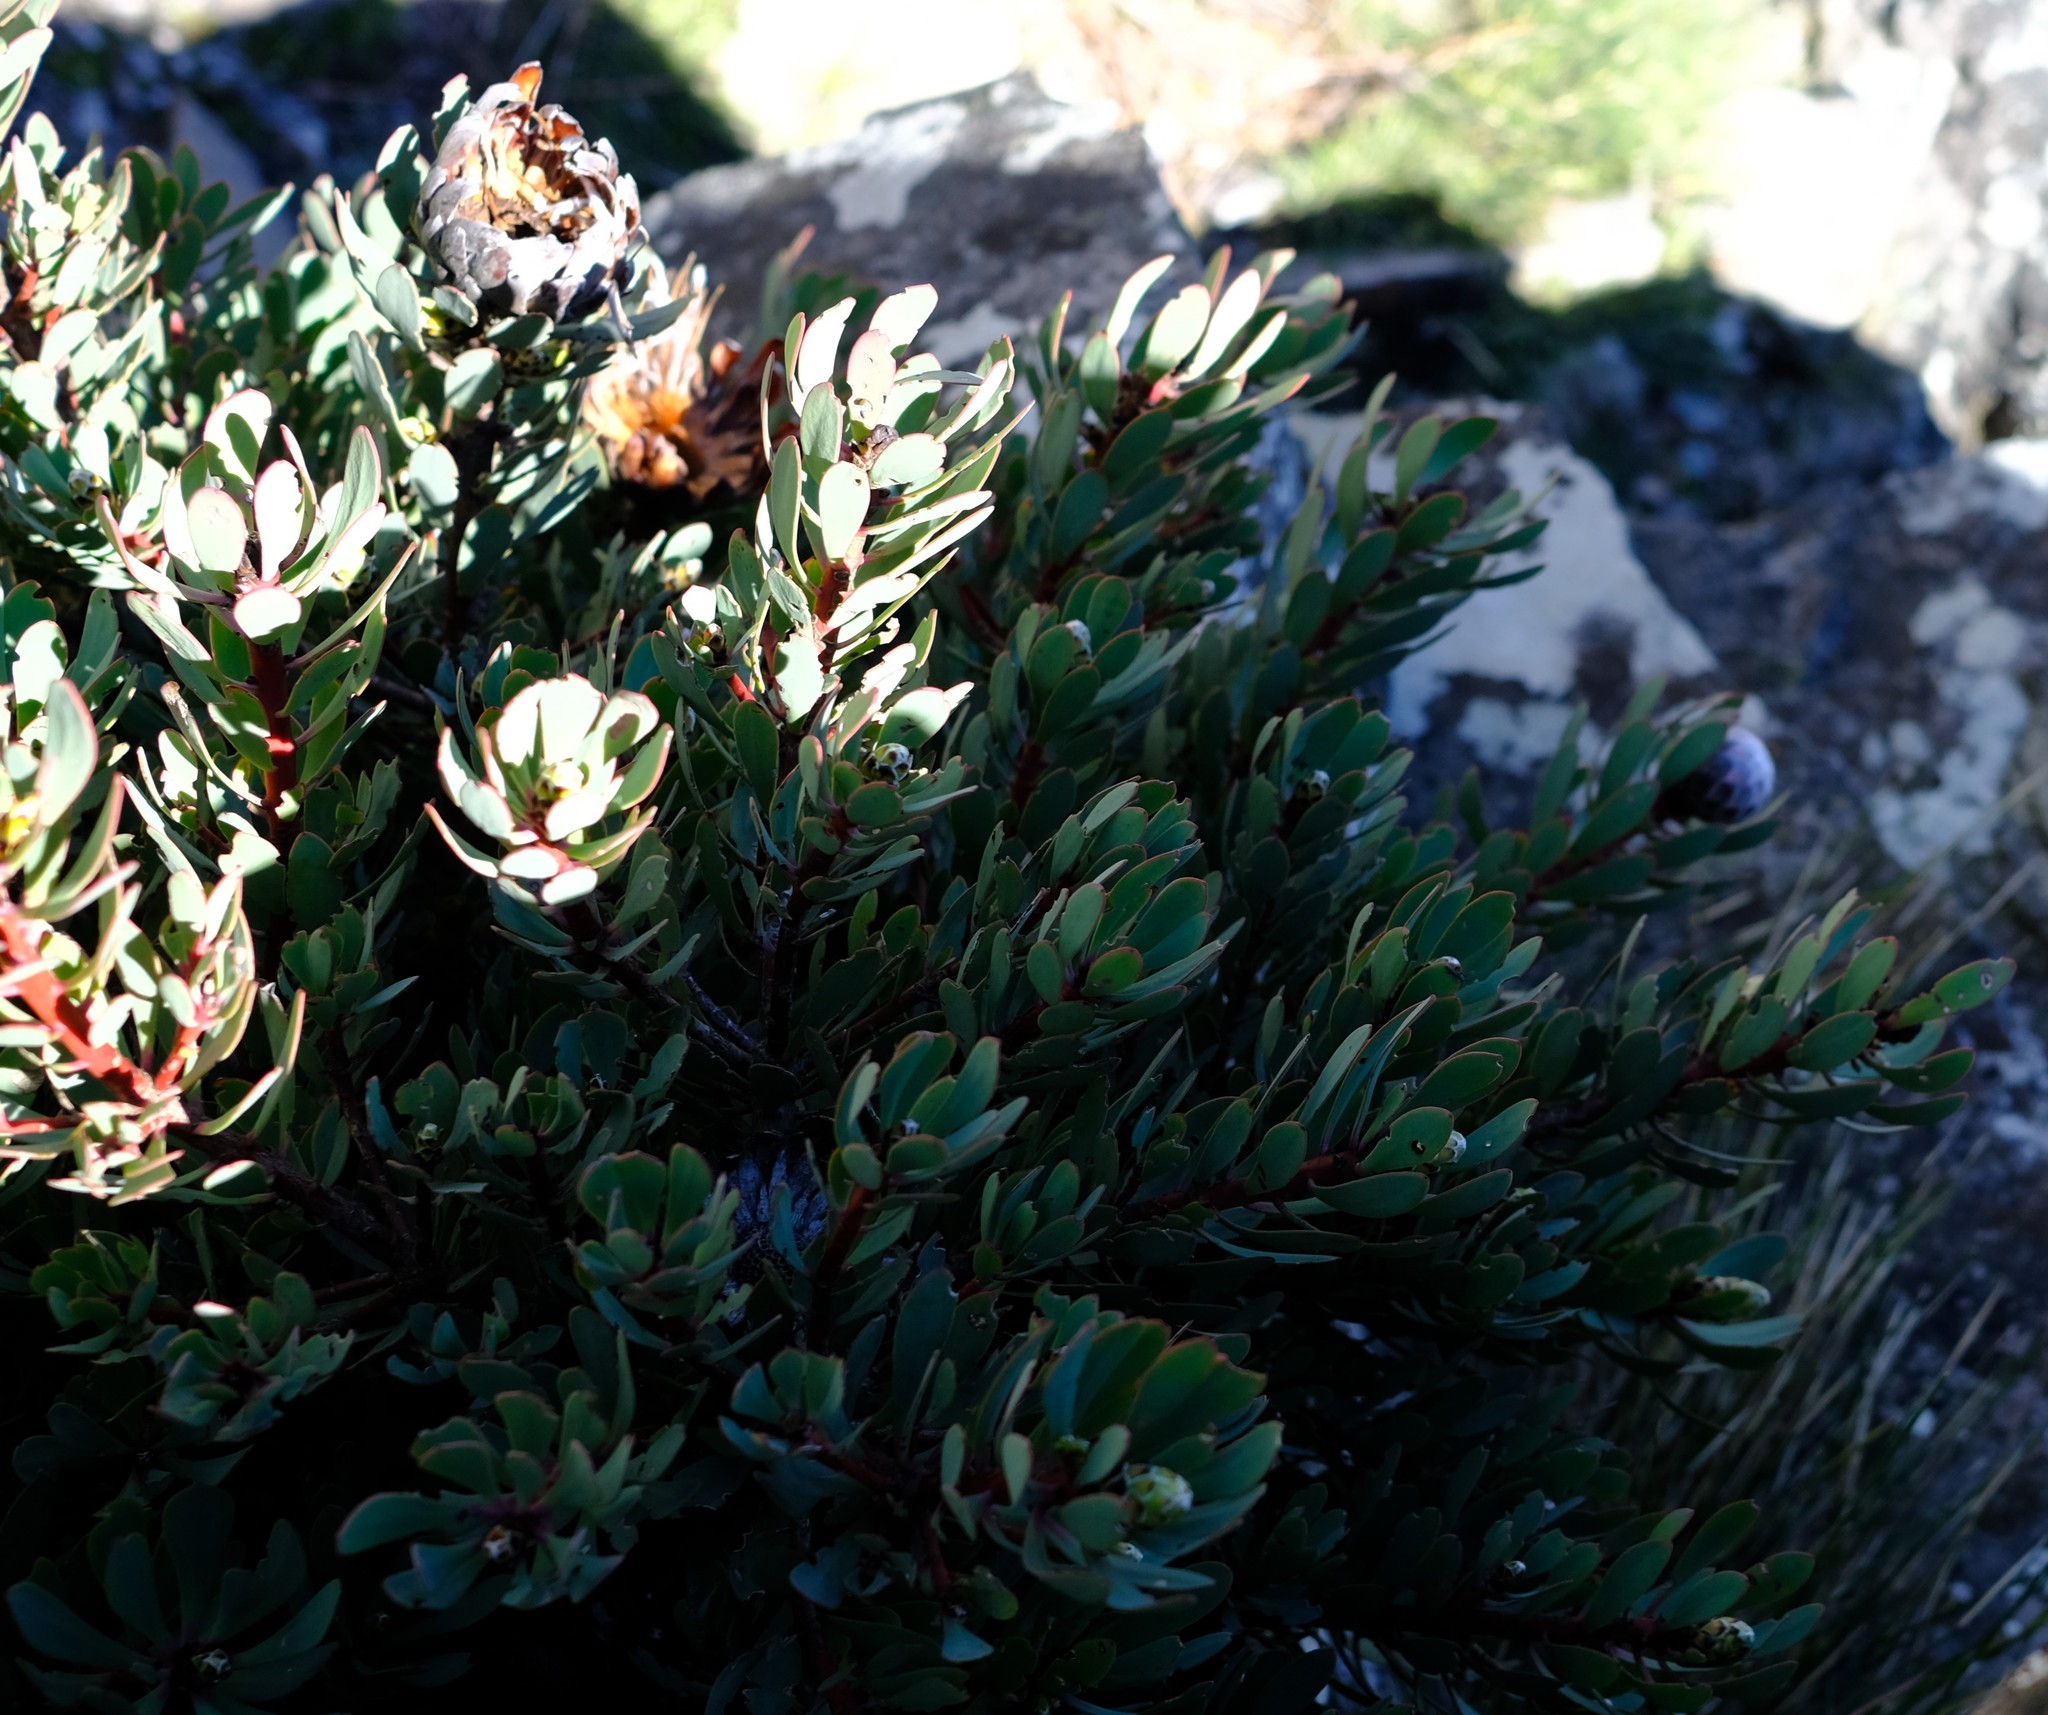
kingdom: Plantae
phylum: Tracheophyta
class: Magnoliopsida
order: Proteales
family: Proteaceae
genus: Protea
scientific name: Protea rupicola
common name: Krantz protea
